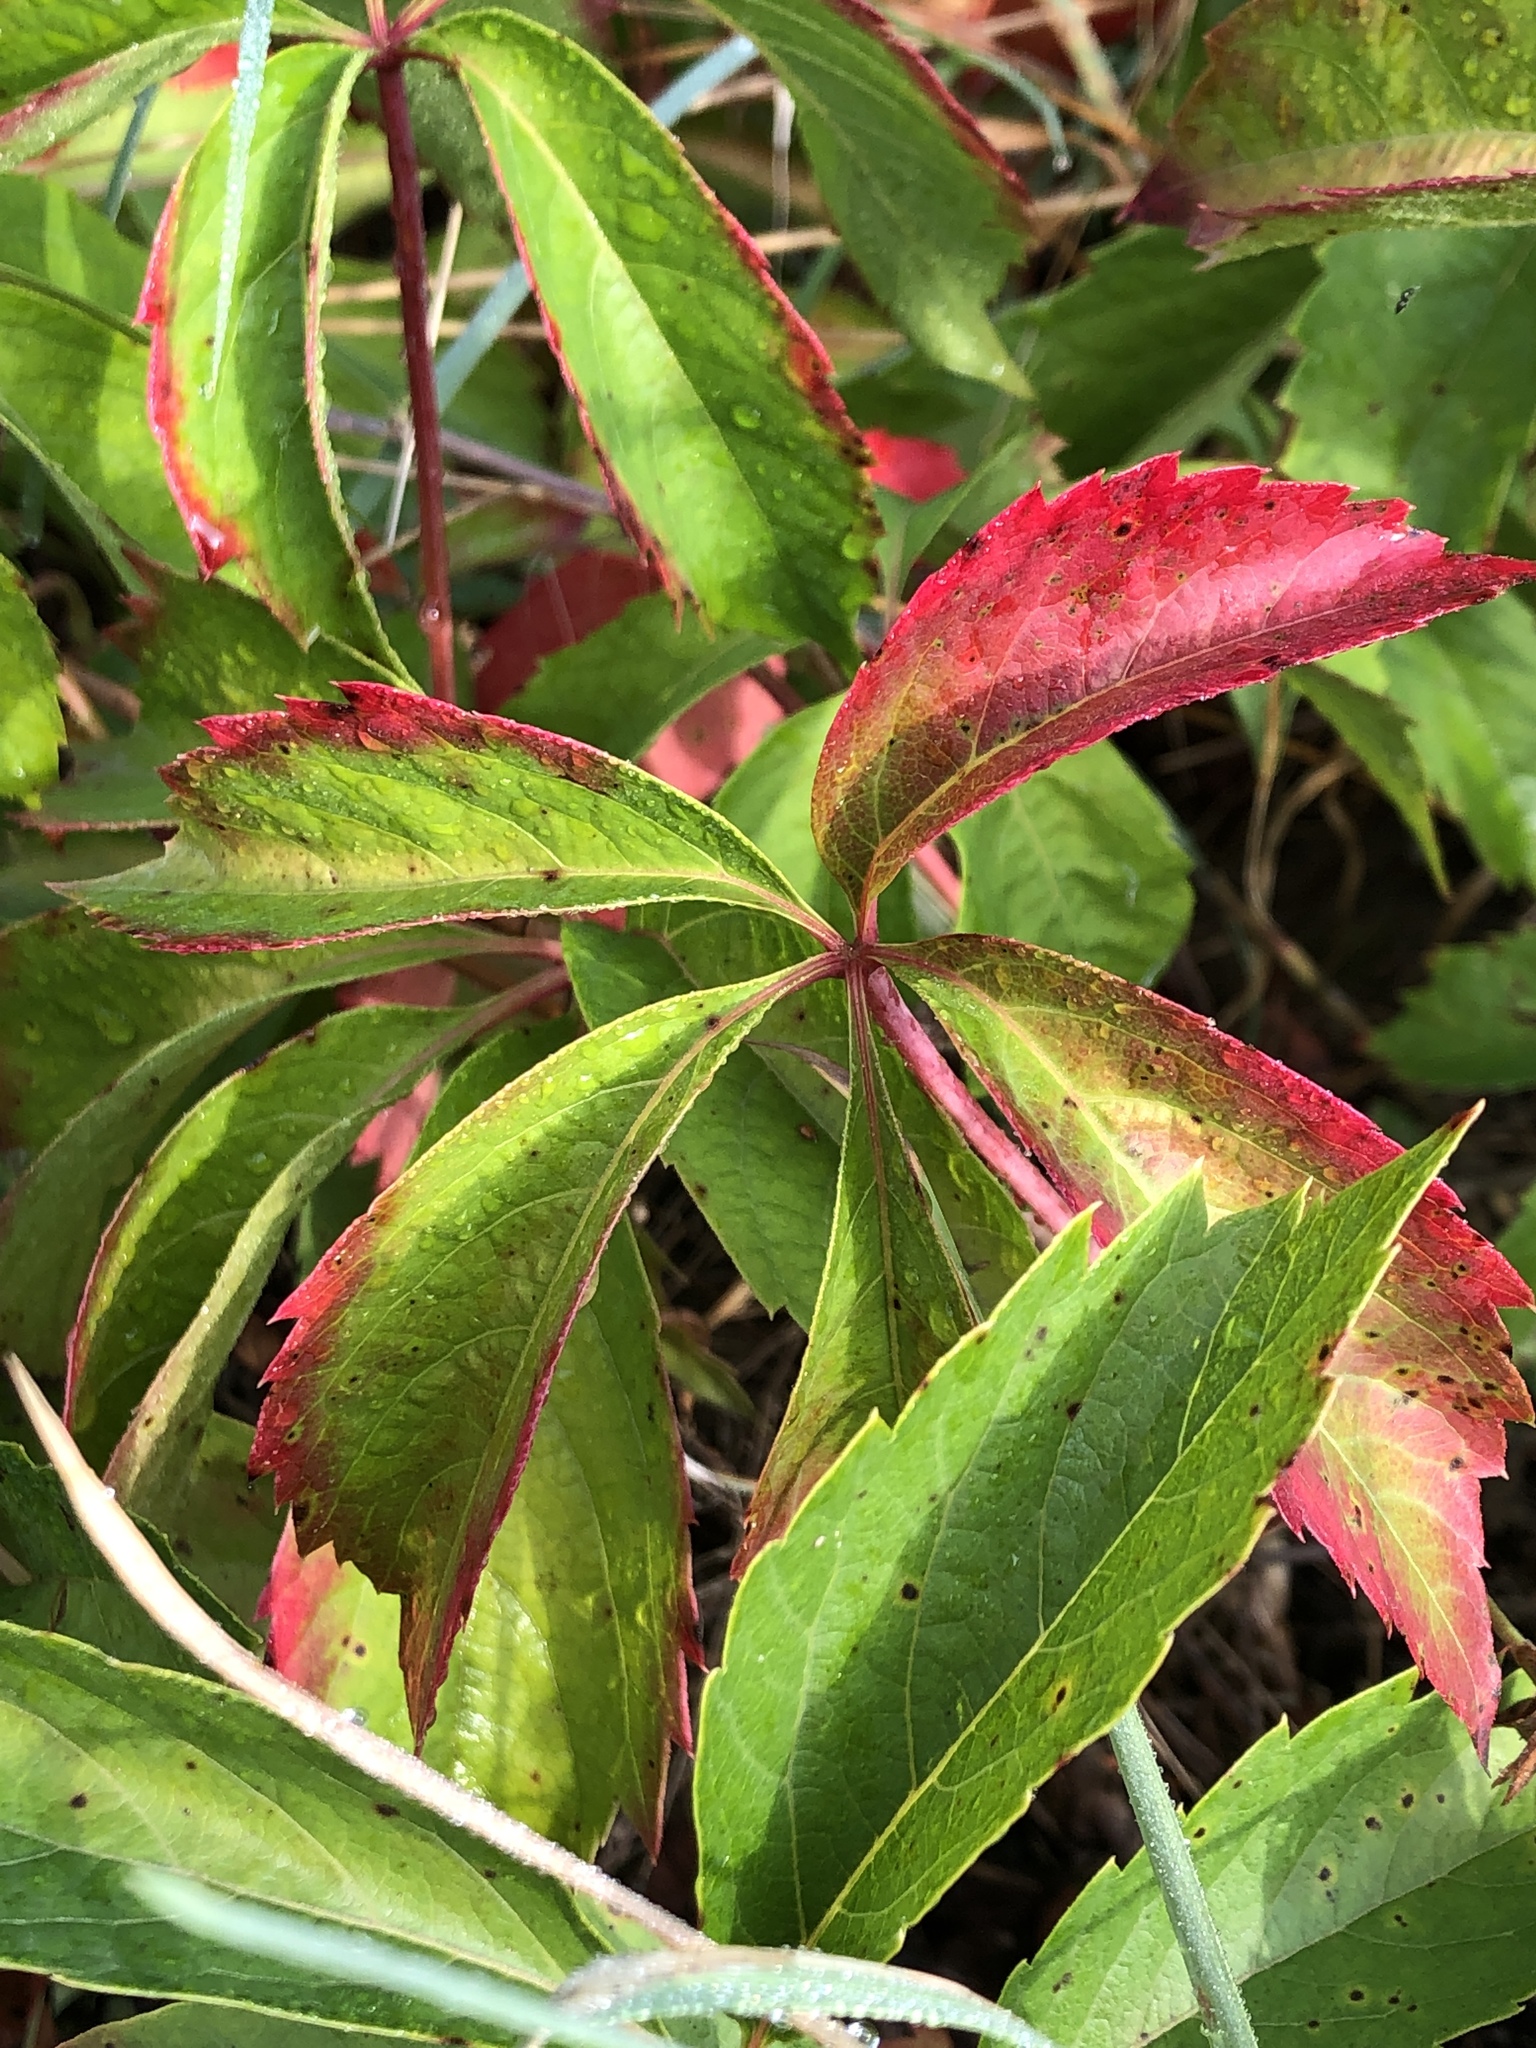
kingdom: Plantae
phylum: Tracheophyta
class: Magnoliopsida
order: Vitales
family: Vitaceae
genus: Parthenocissus
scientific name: Parthenocissus quinquefolia
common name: Virginia-creeper
